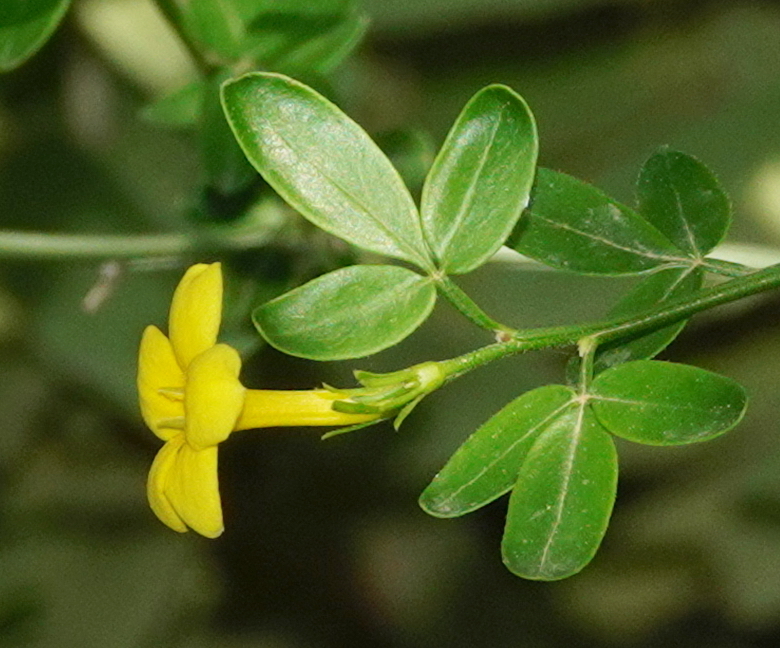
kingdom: Plantae
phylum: Tracheophyta
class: Magnoliopsida
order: Lamiales
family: Oleaceae
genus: Chrysojasminum
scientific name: Chrysojasminum fruticans
